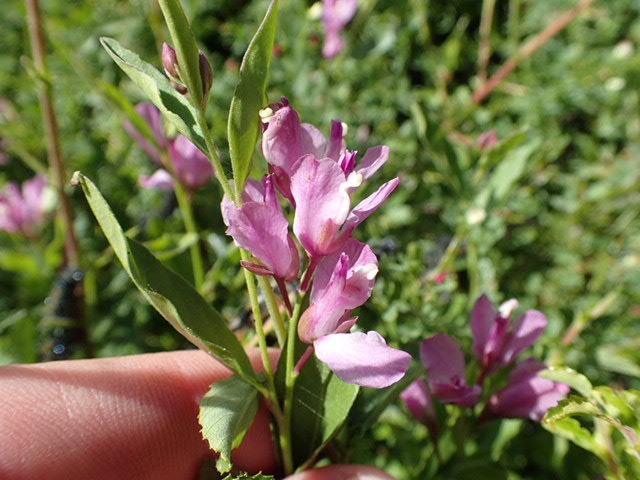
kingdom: Plantae
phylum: Tracheophyta
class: Magnoliopsida
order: Fabales
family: Polygalaceae
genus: Rhinotropis
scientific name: Rhinotropis californica
